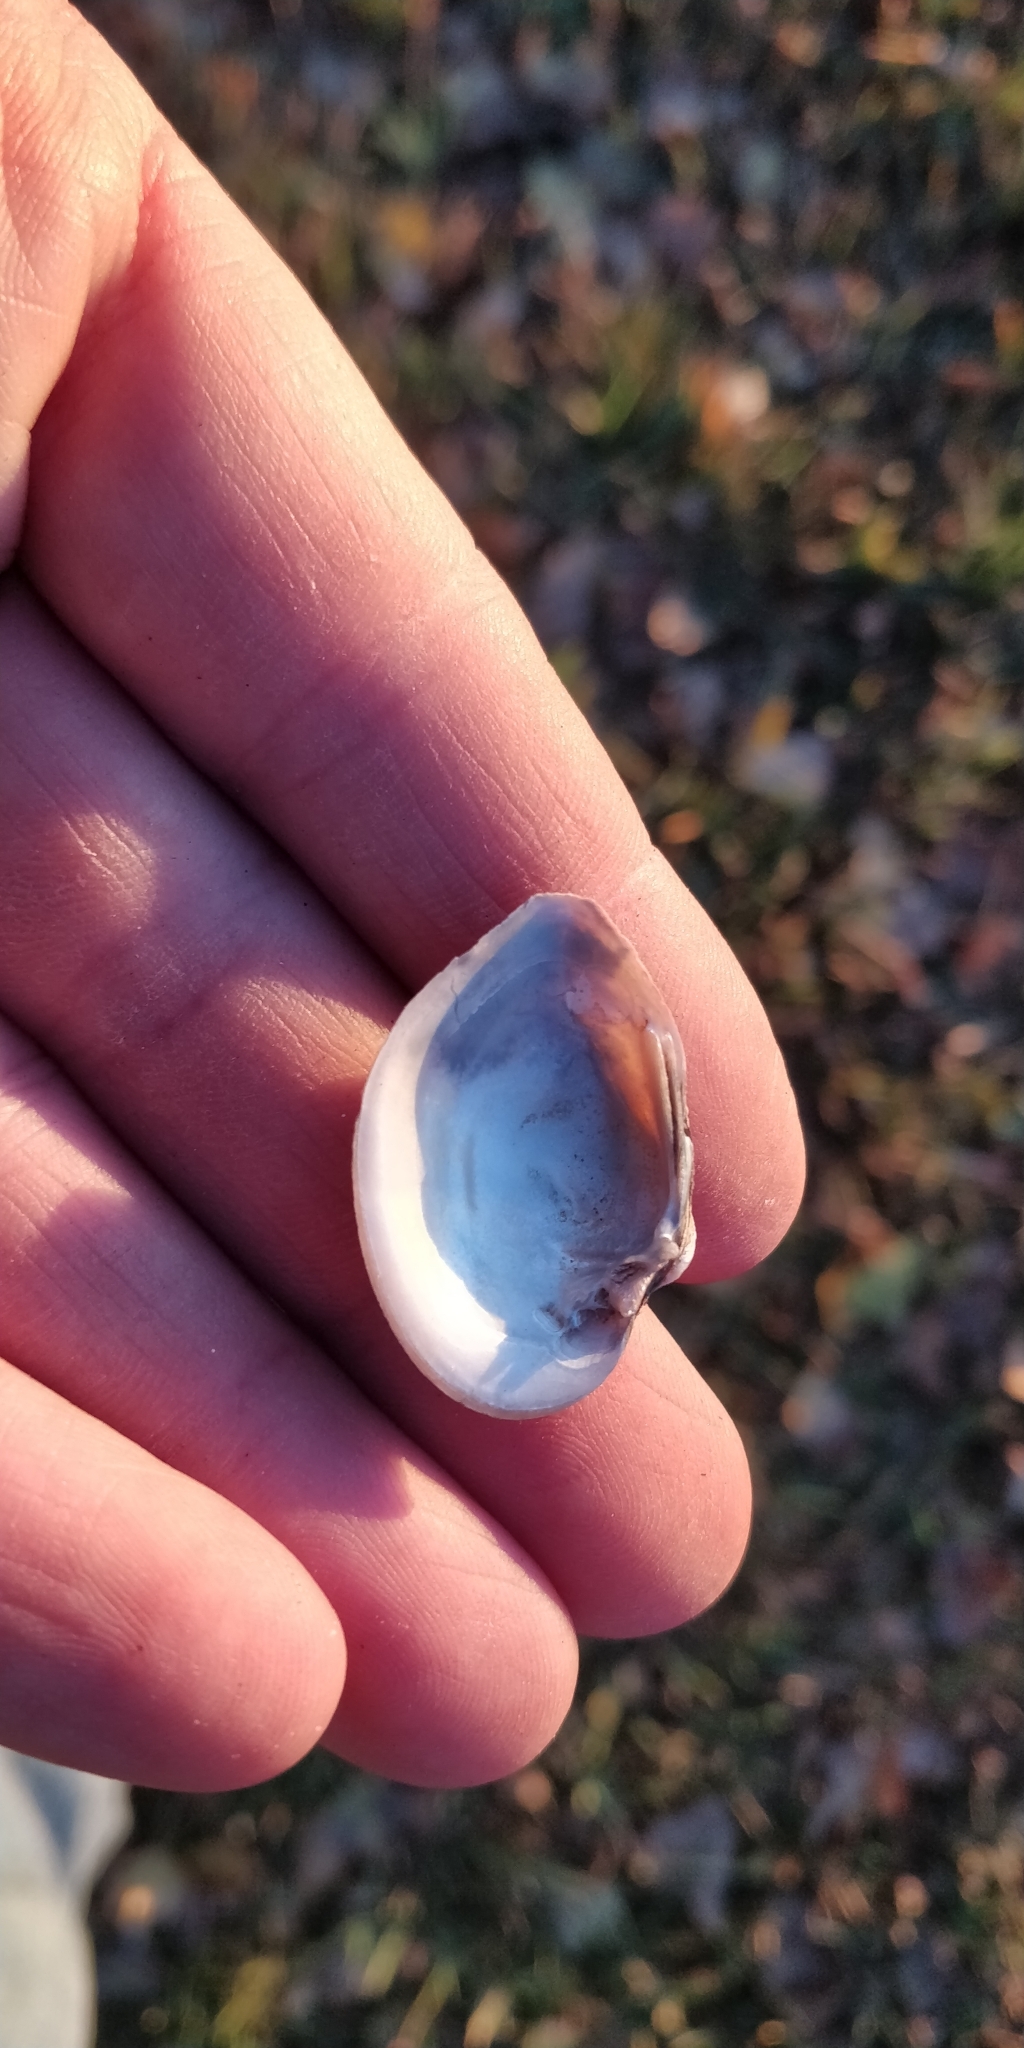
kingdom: Animalia
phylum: Mollusca
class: Bivalvia
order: Unionida
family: Unionidae
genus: Truncilla
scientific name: Truncilla truncata
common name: Deertoe
